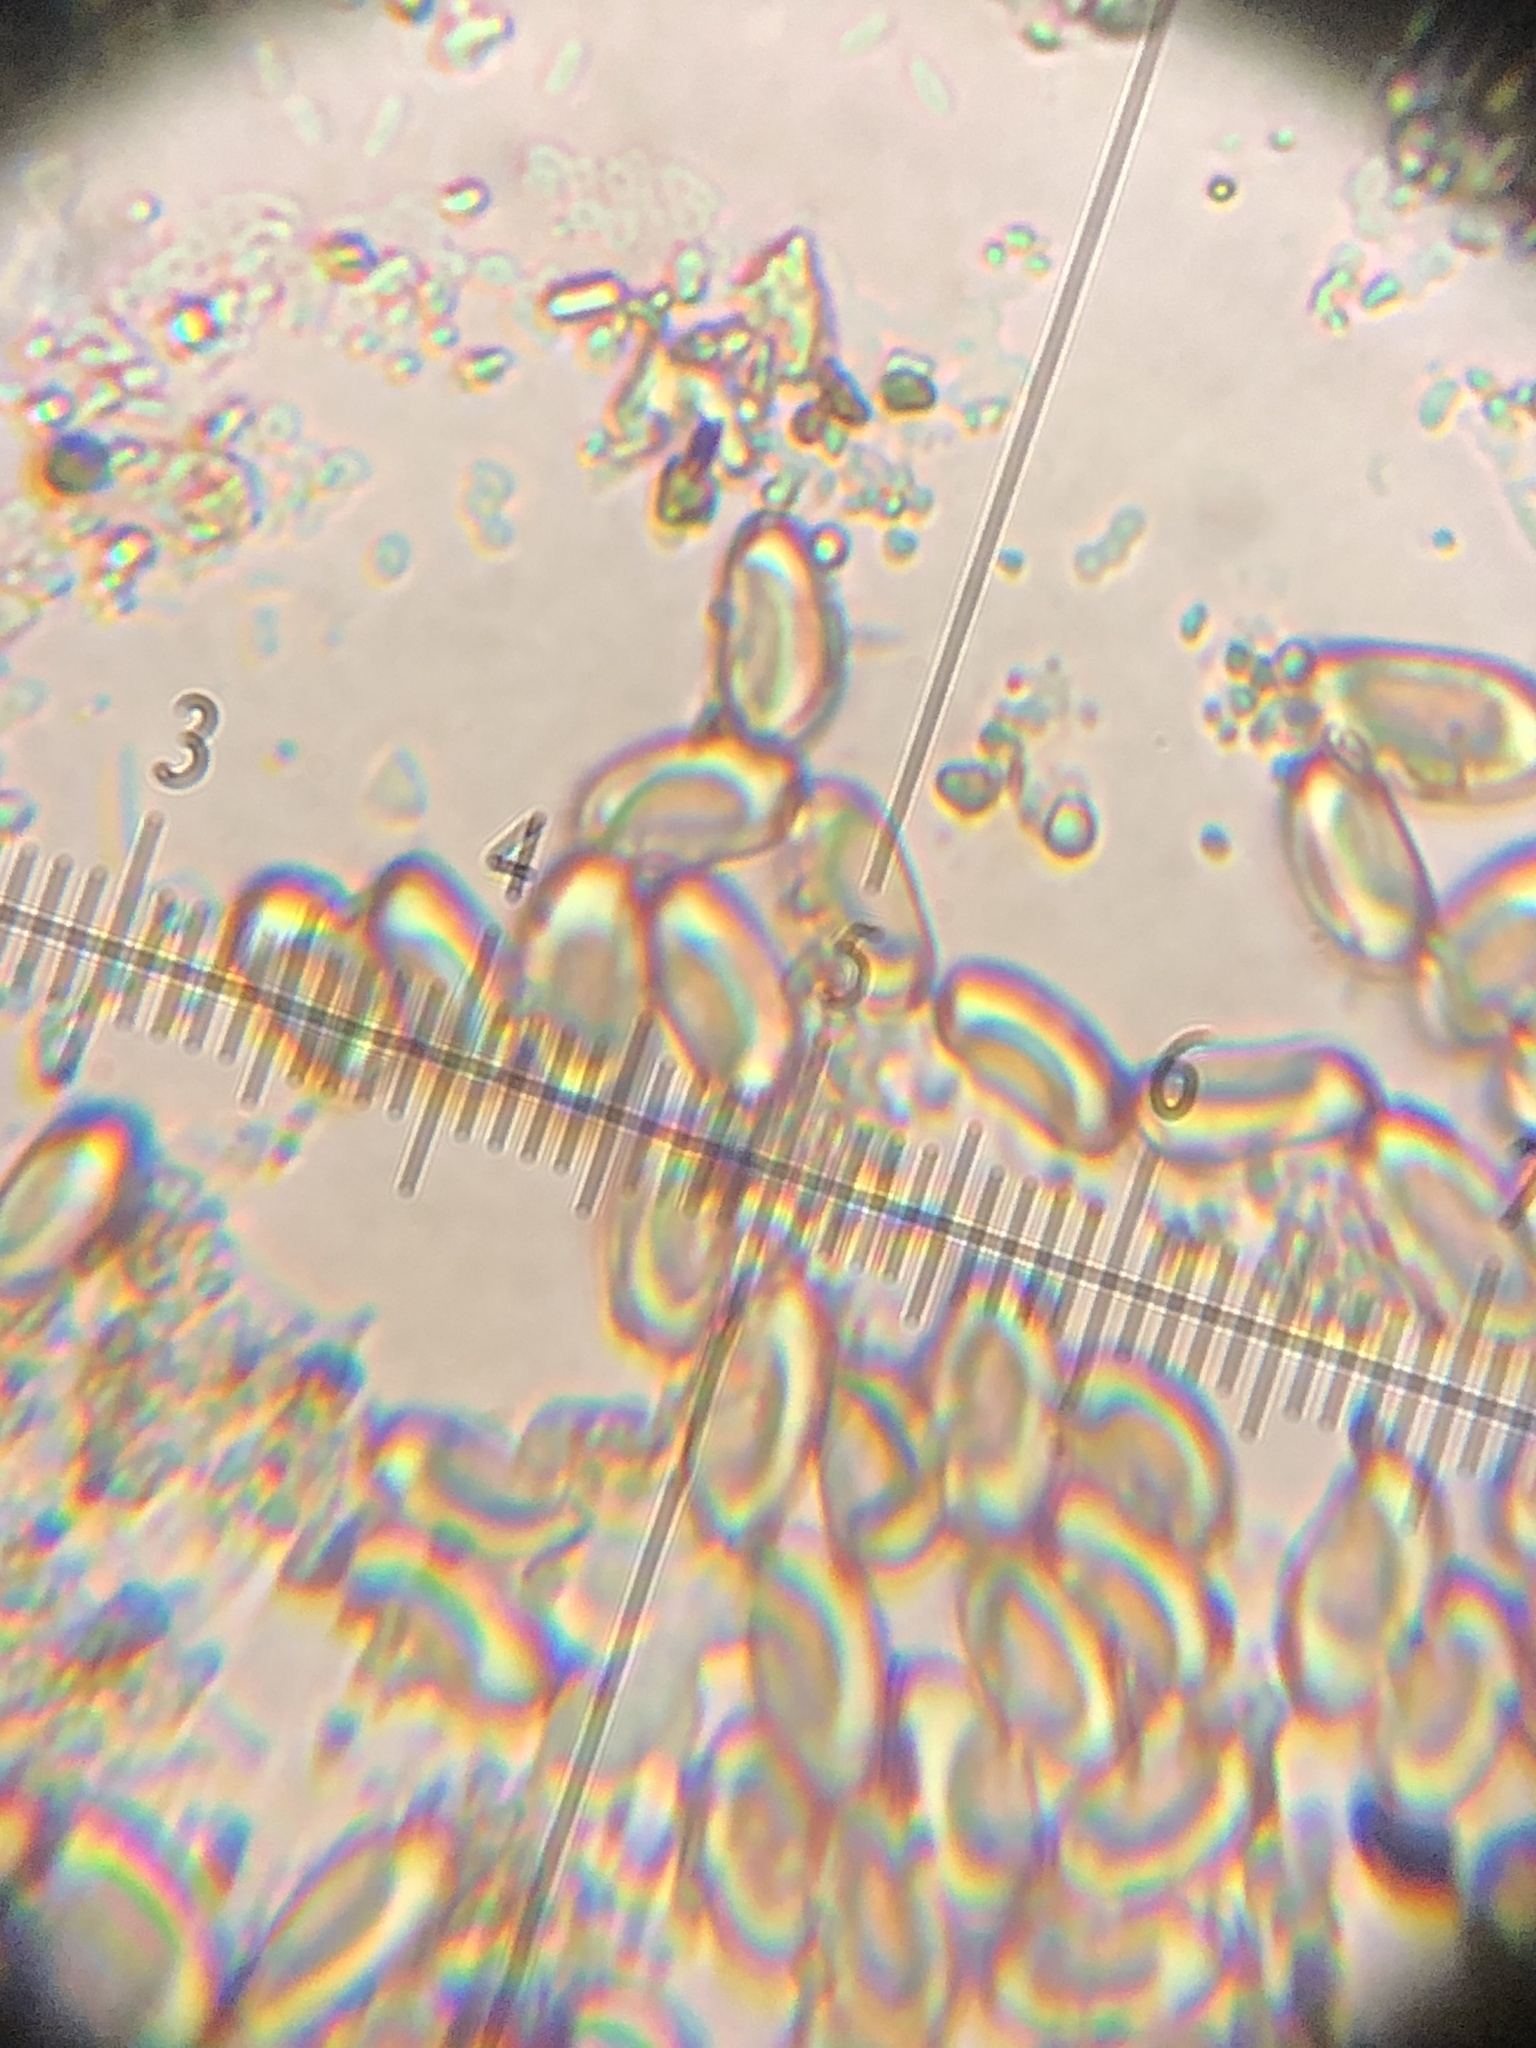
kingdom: Fungi
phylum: Basidiomycota
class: Agaricomycetes
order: Boletales
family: Suillaceae
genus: Suillus
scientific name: Suillus caerulescens
